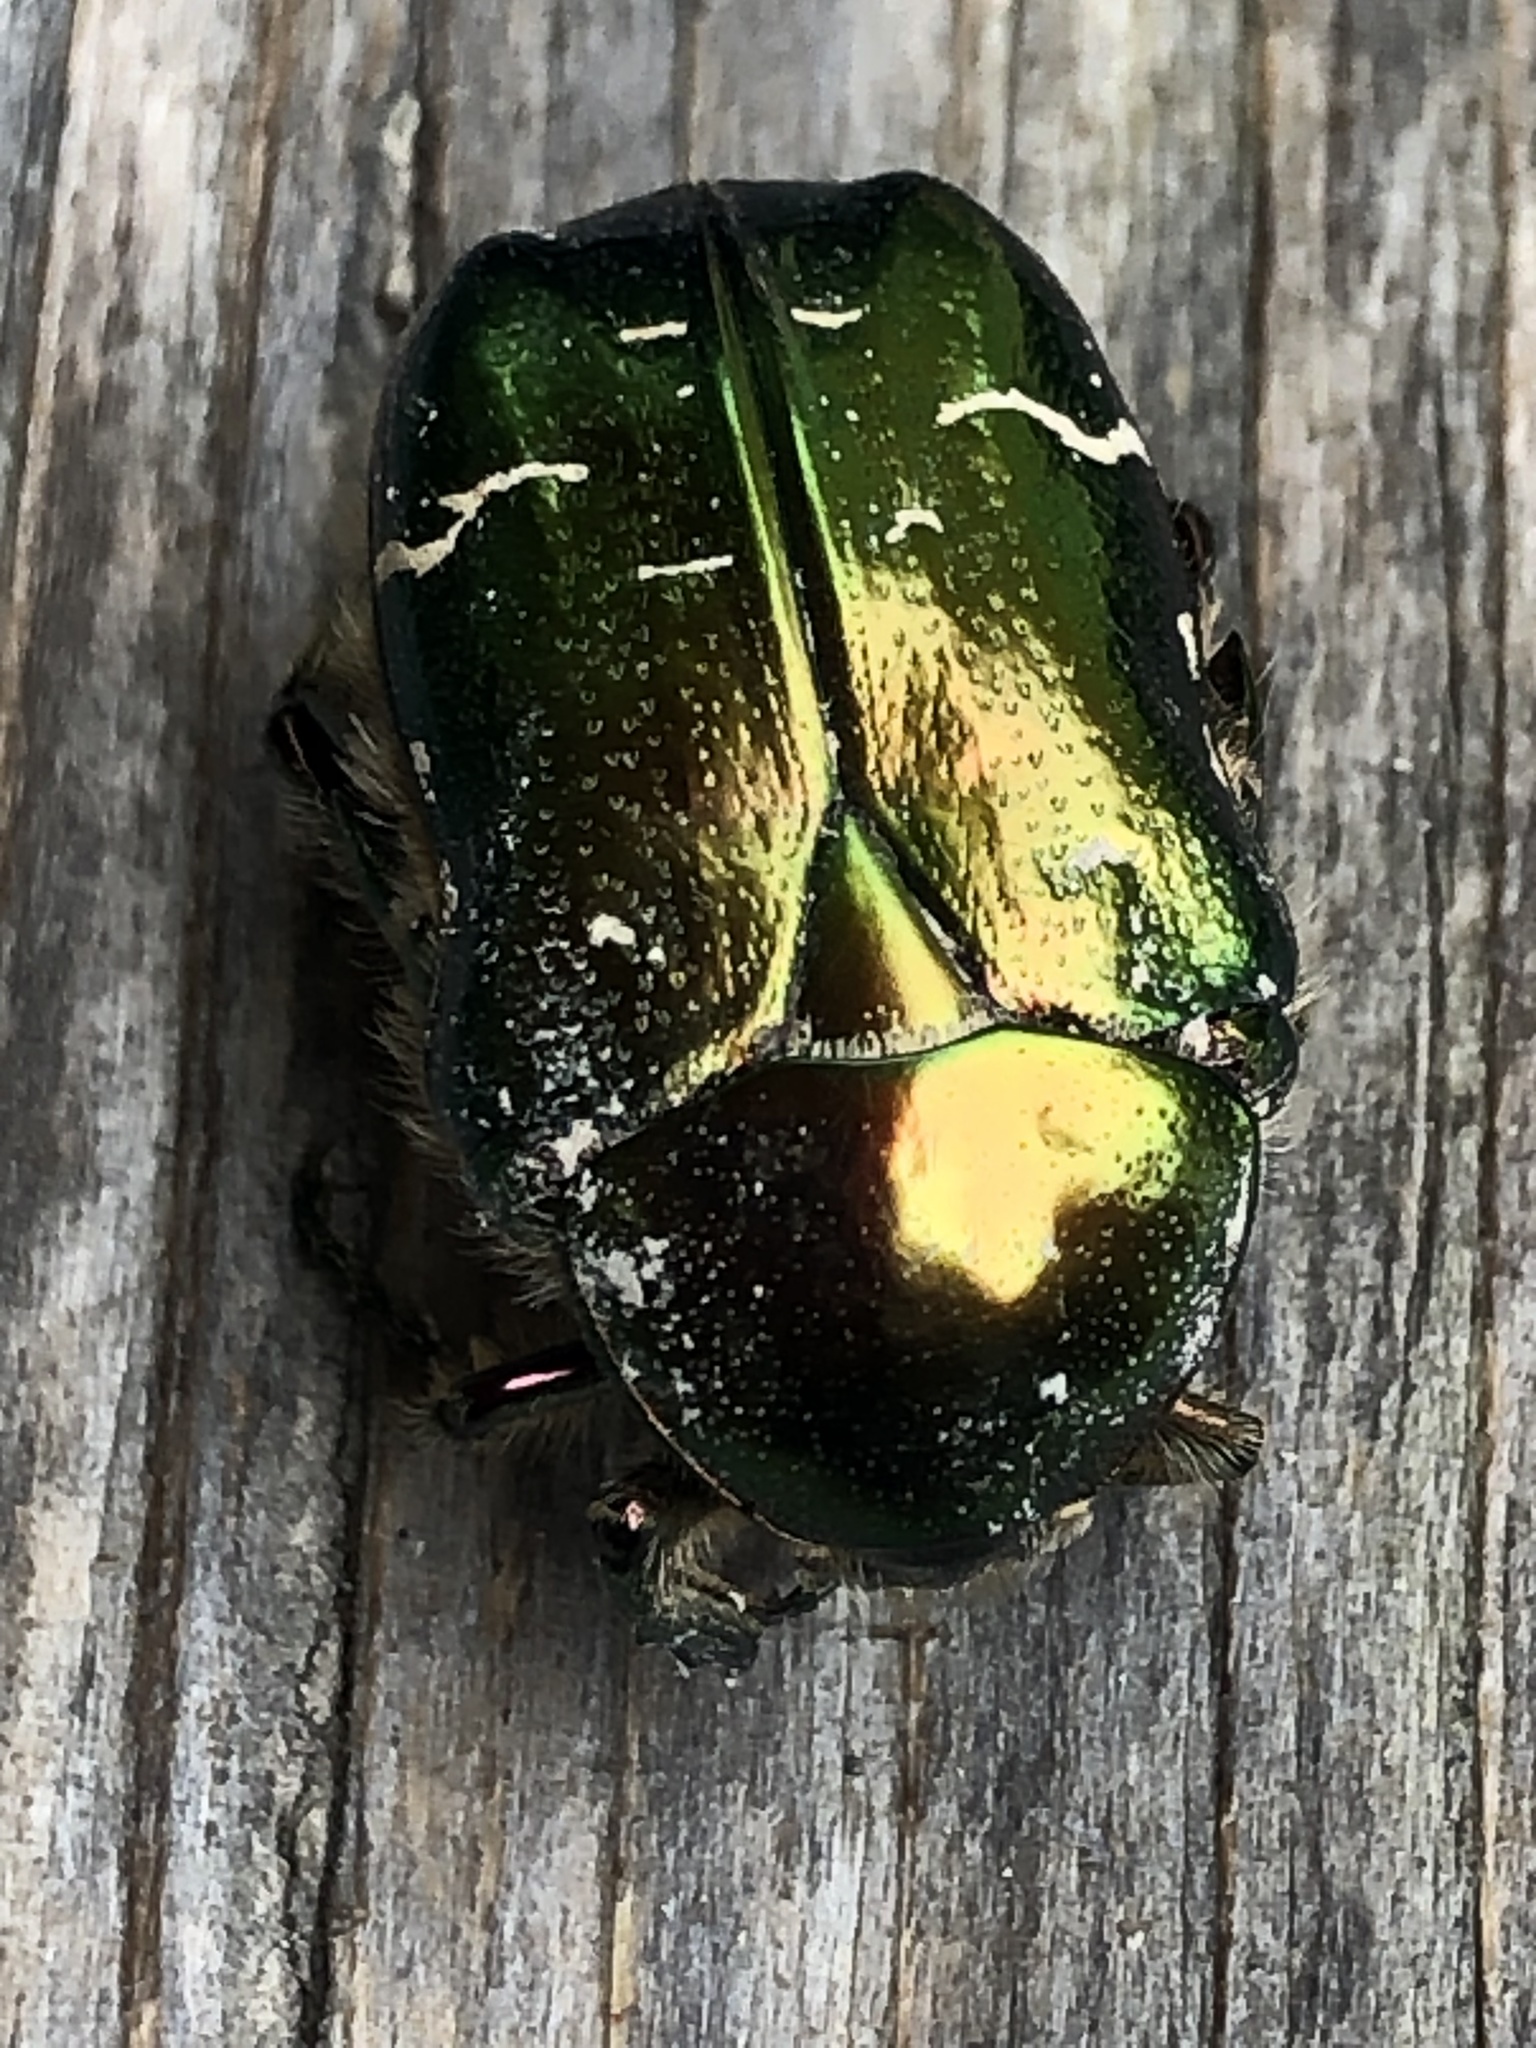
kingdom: Animalia
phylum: Arthropoda
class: Insecta
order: Coleoptera
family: Scarabaeidae
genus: Cetonia
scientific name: Cetonia aurata
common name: Rose chafer
